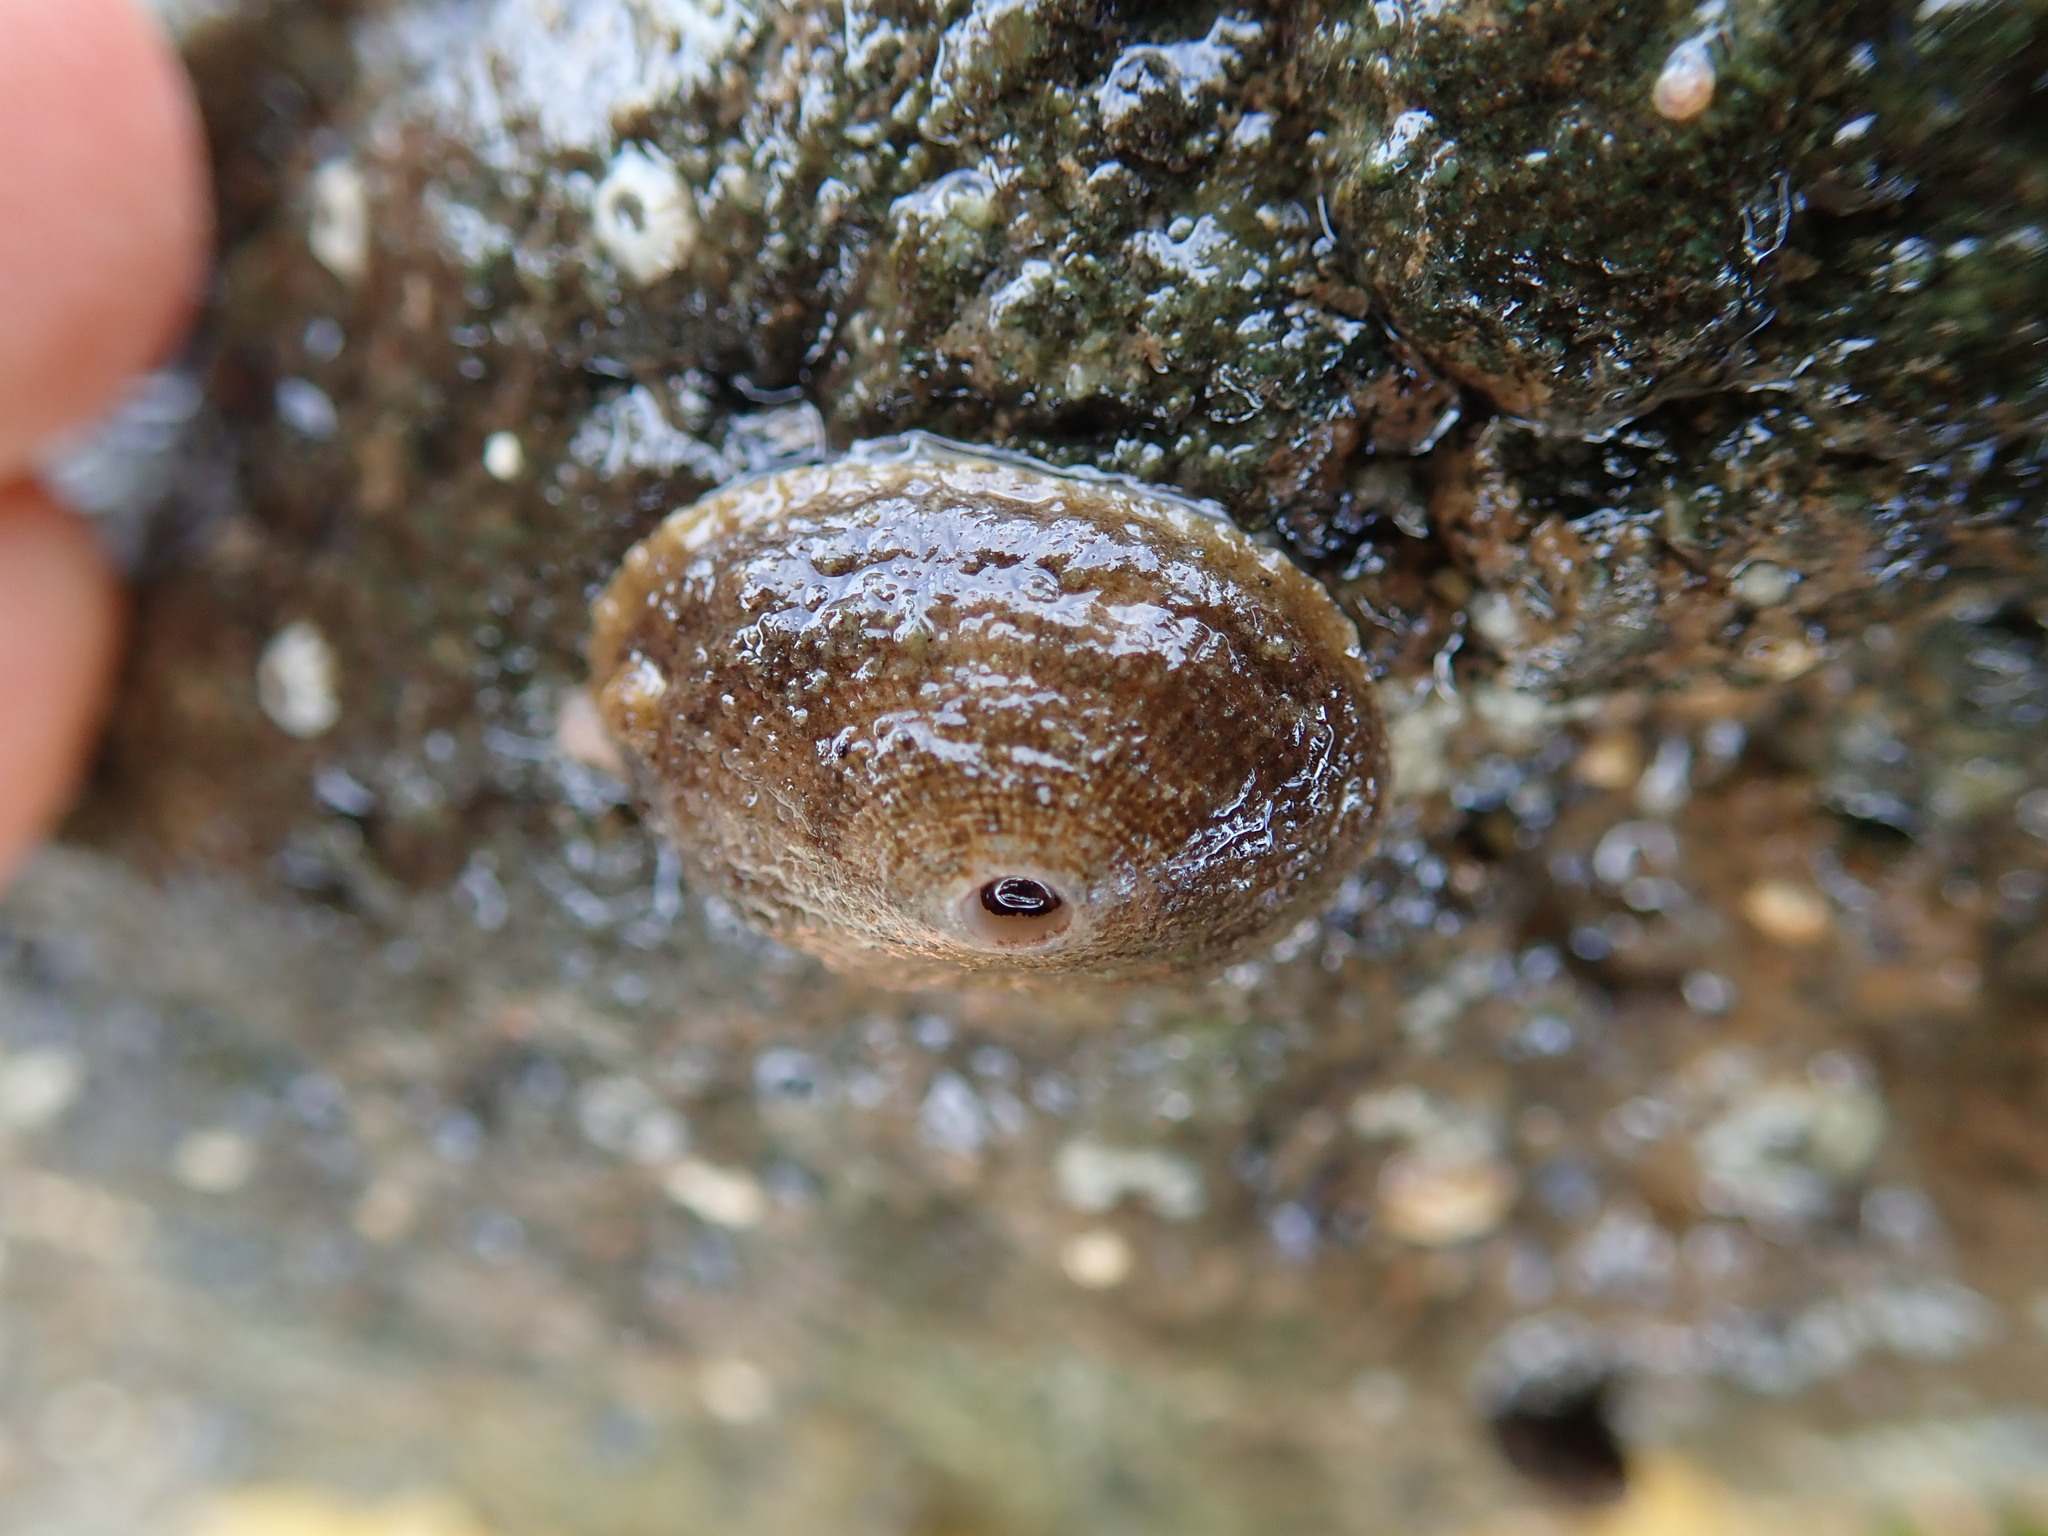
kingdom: Animalia
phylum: Mollusca
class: Gastropoda
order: Lepetellida
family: Fissurellidae
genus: Diodora
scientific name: Diodora aspera
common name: Rough keyhole limpet
